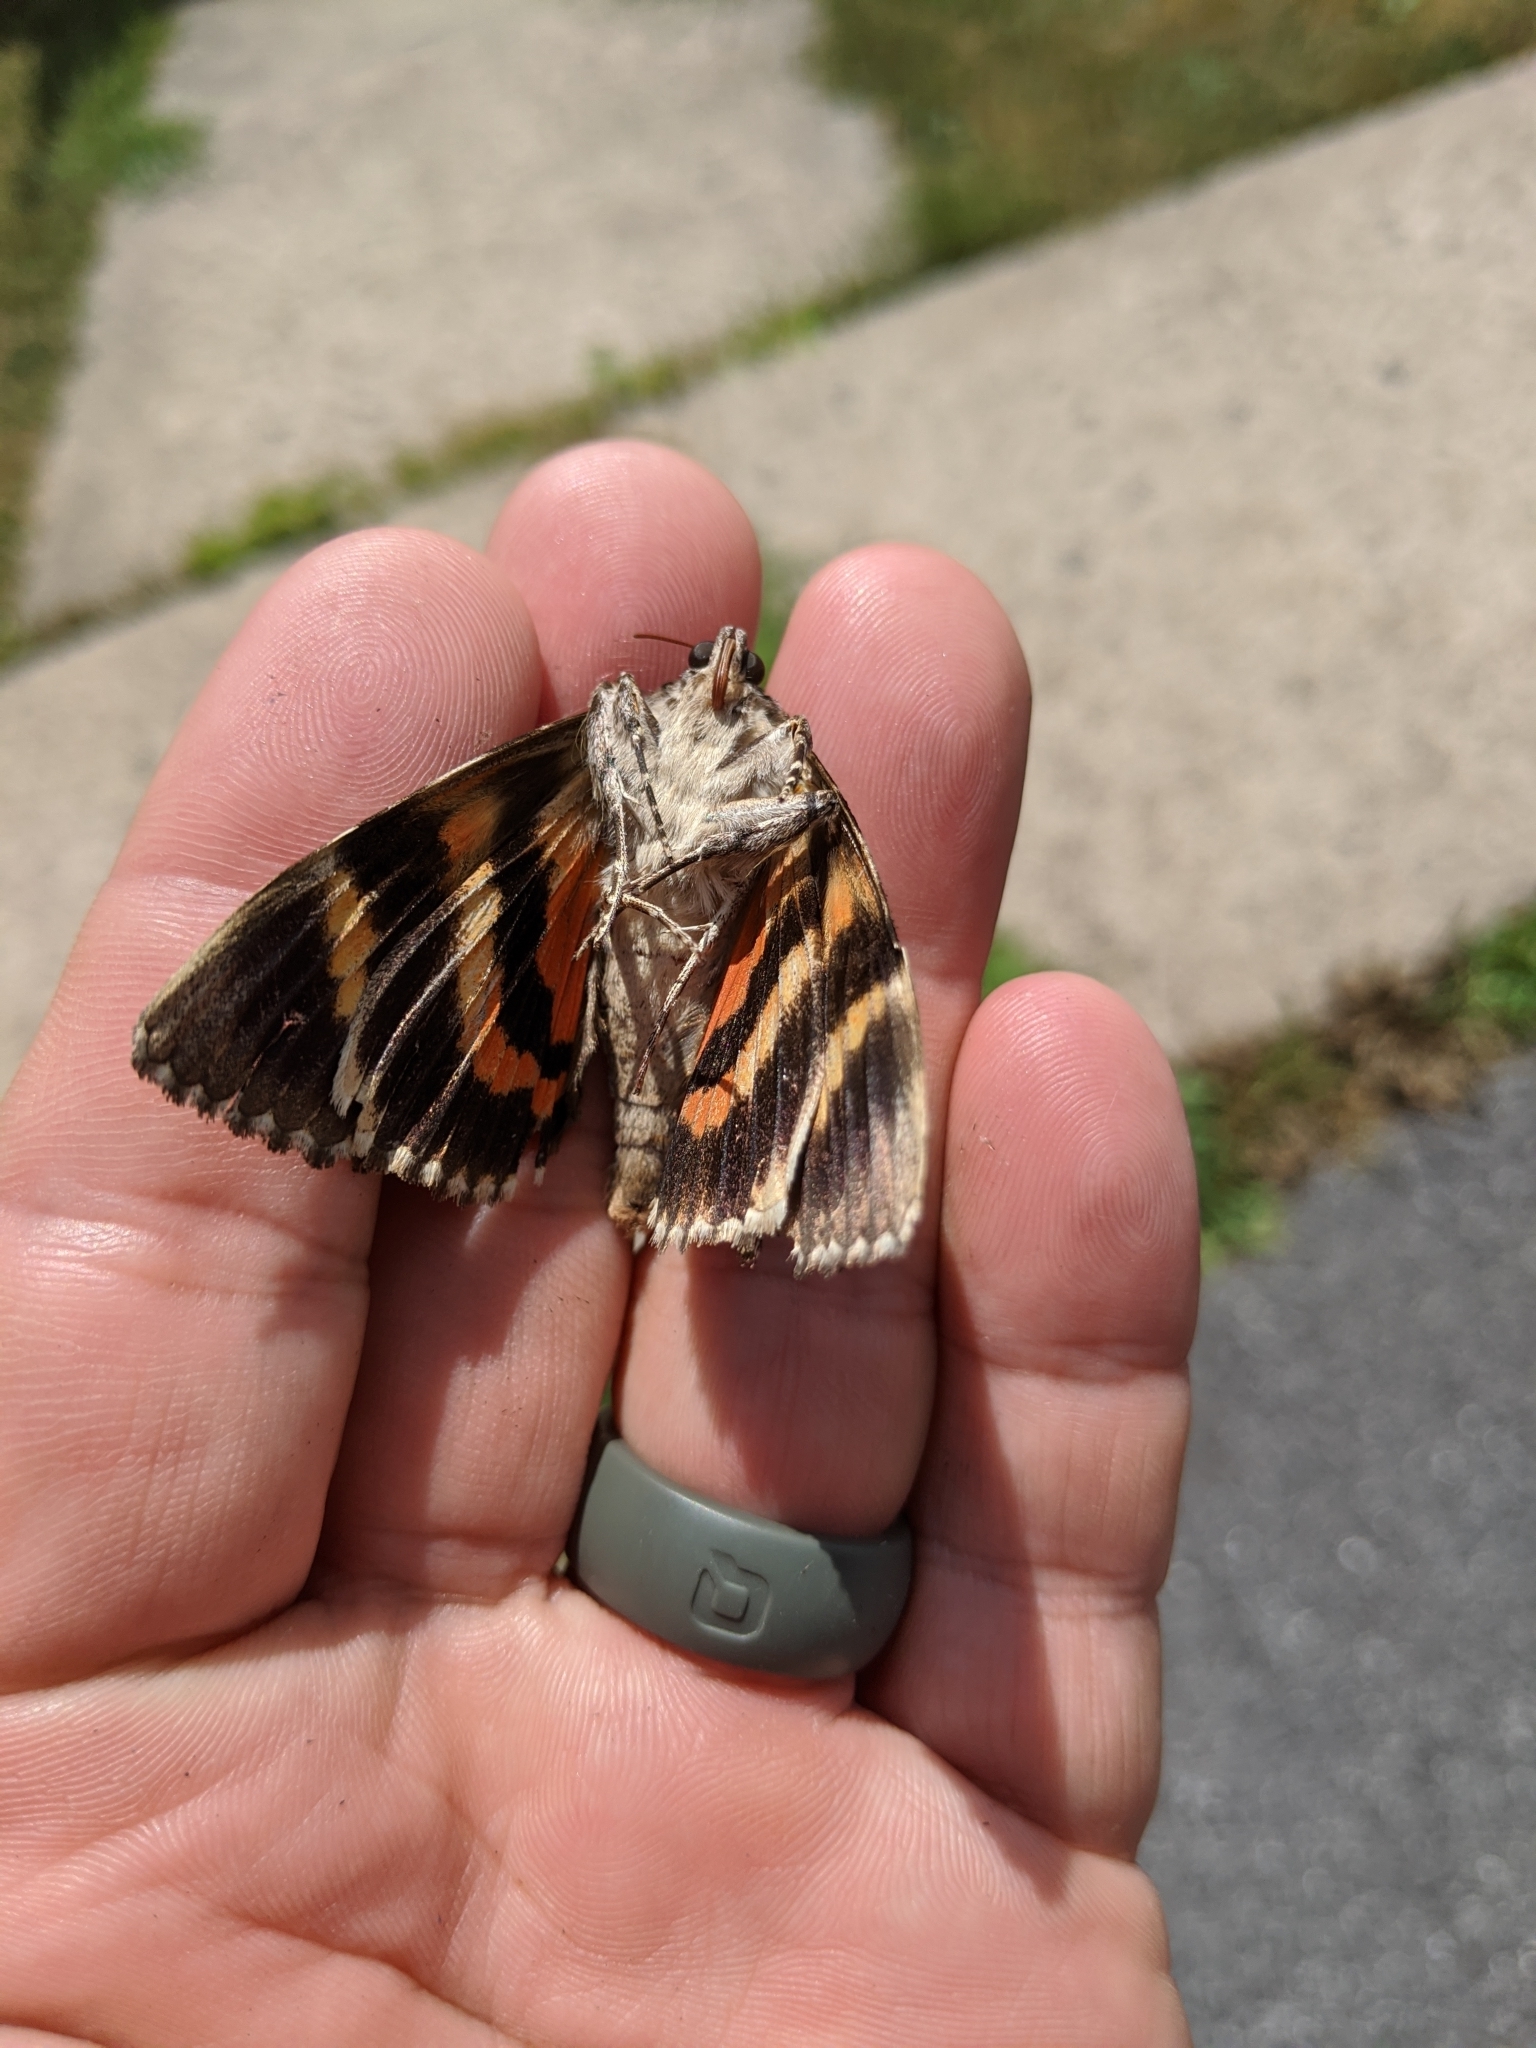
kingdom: Animalia
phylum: Arthropoda
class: Insecta
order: Lepidoptera
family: Erebidae
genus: Catocala
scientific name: Catocala ilia
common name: Ilia underwing
